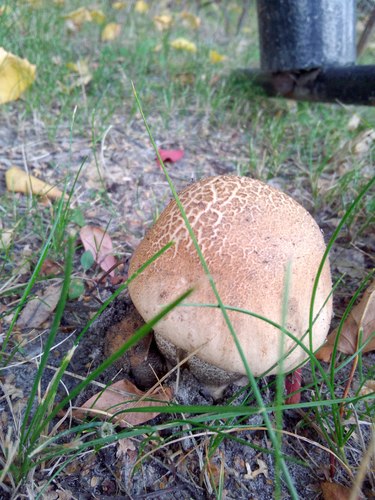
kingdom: Fungi
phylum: Basidiomycota
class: Agaricomycetes
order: Boletales
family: Boletaceae
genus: Leccinum
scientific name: Leccinum scabrum
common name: Blushing bolete
